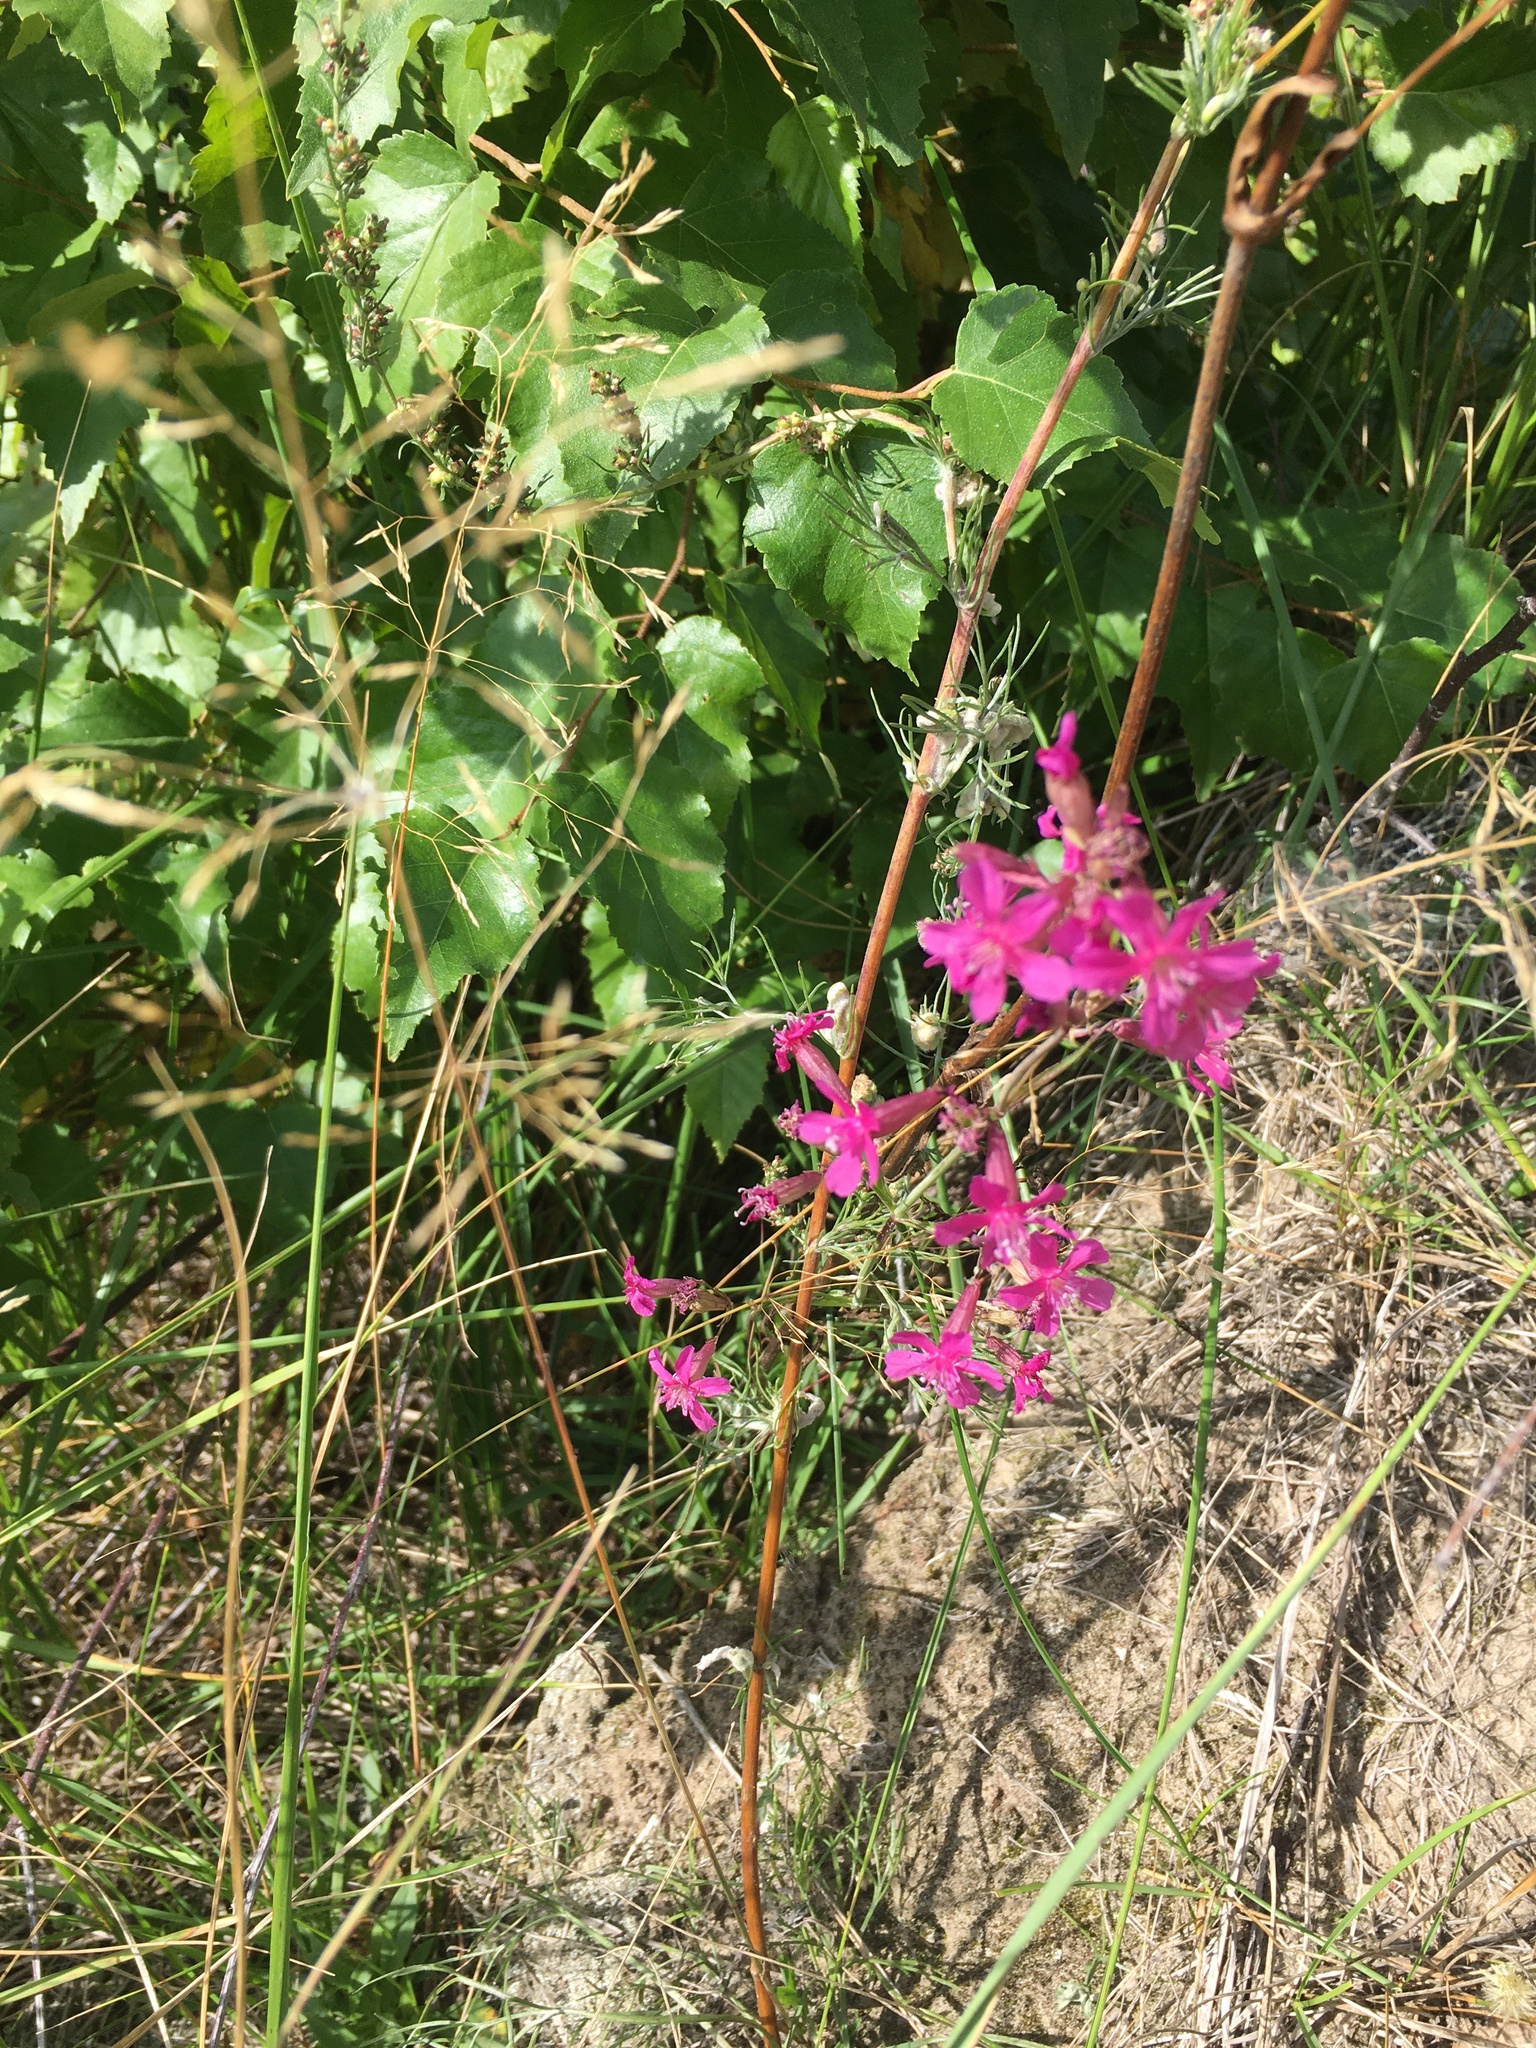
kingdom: Plantae
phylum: Tracheophyta
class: Magnoliopsida
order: Caryophyllales
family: Caryophyllaceae
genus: Viscaria
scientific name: Viscaria vulgaris
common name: Clammy campion
